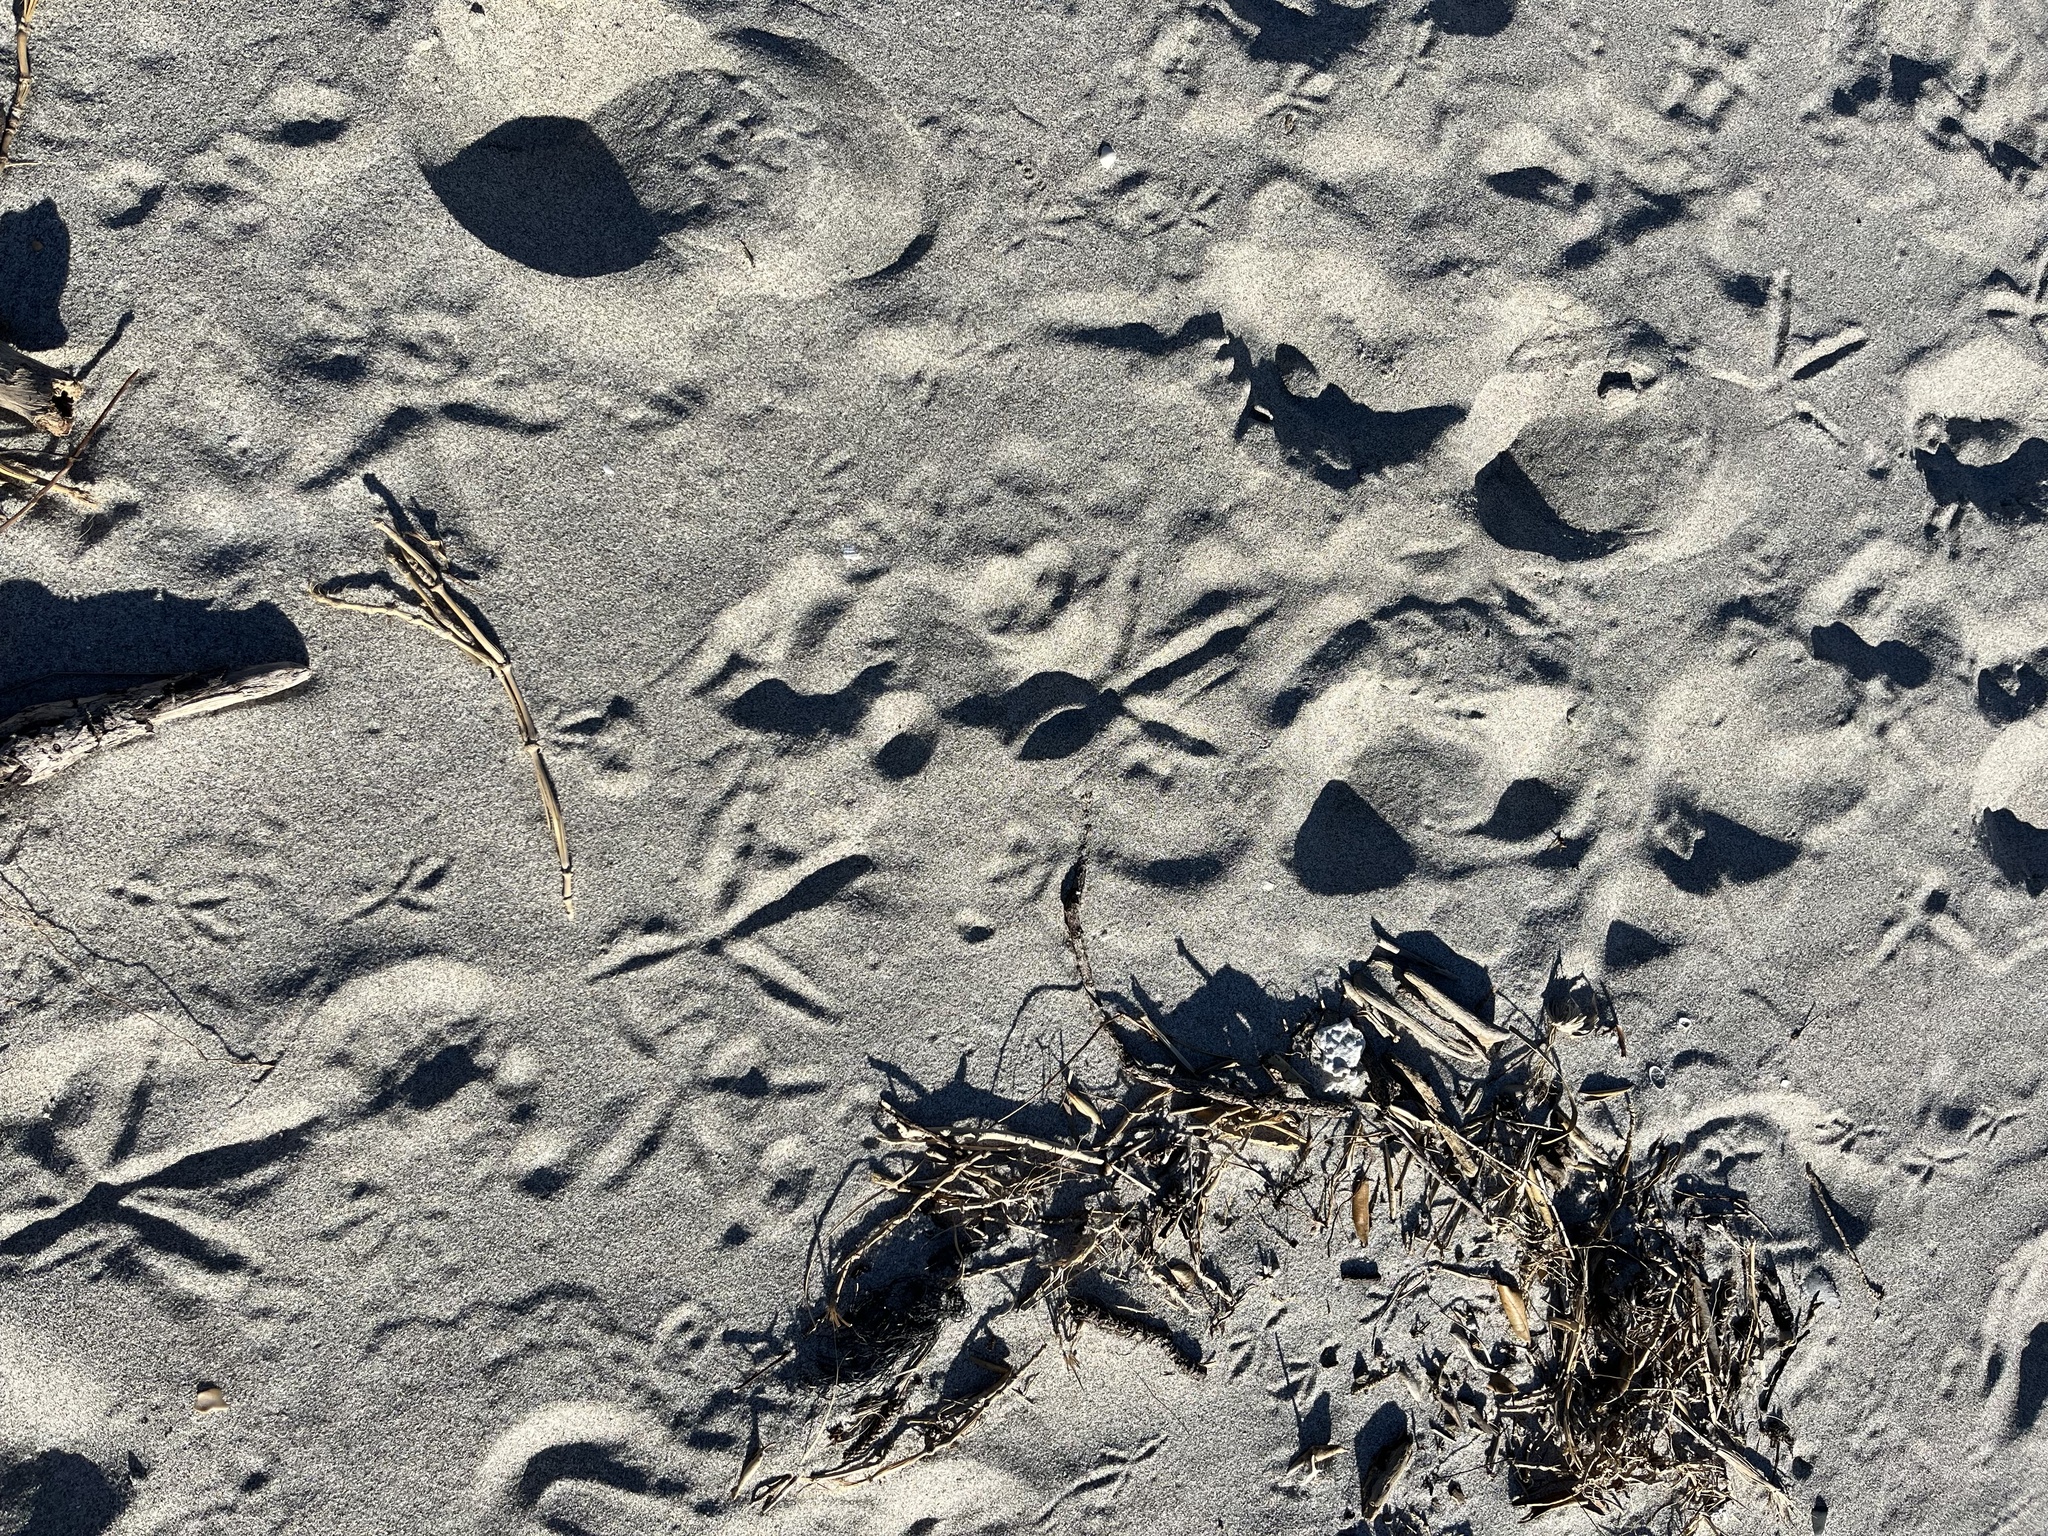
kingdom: Animalia
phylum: Chordata
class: Aves
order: Gruiformes
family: Rallidae
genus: Porphyrio
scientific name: Porphyrio melanotus
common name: Australasian swamphen
